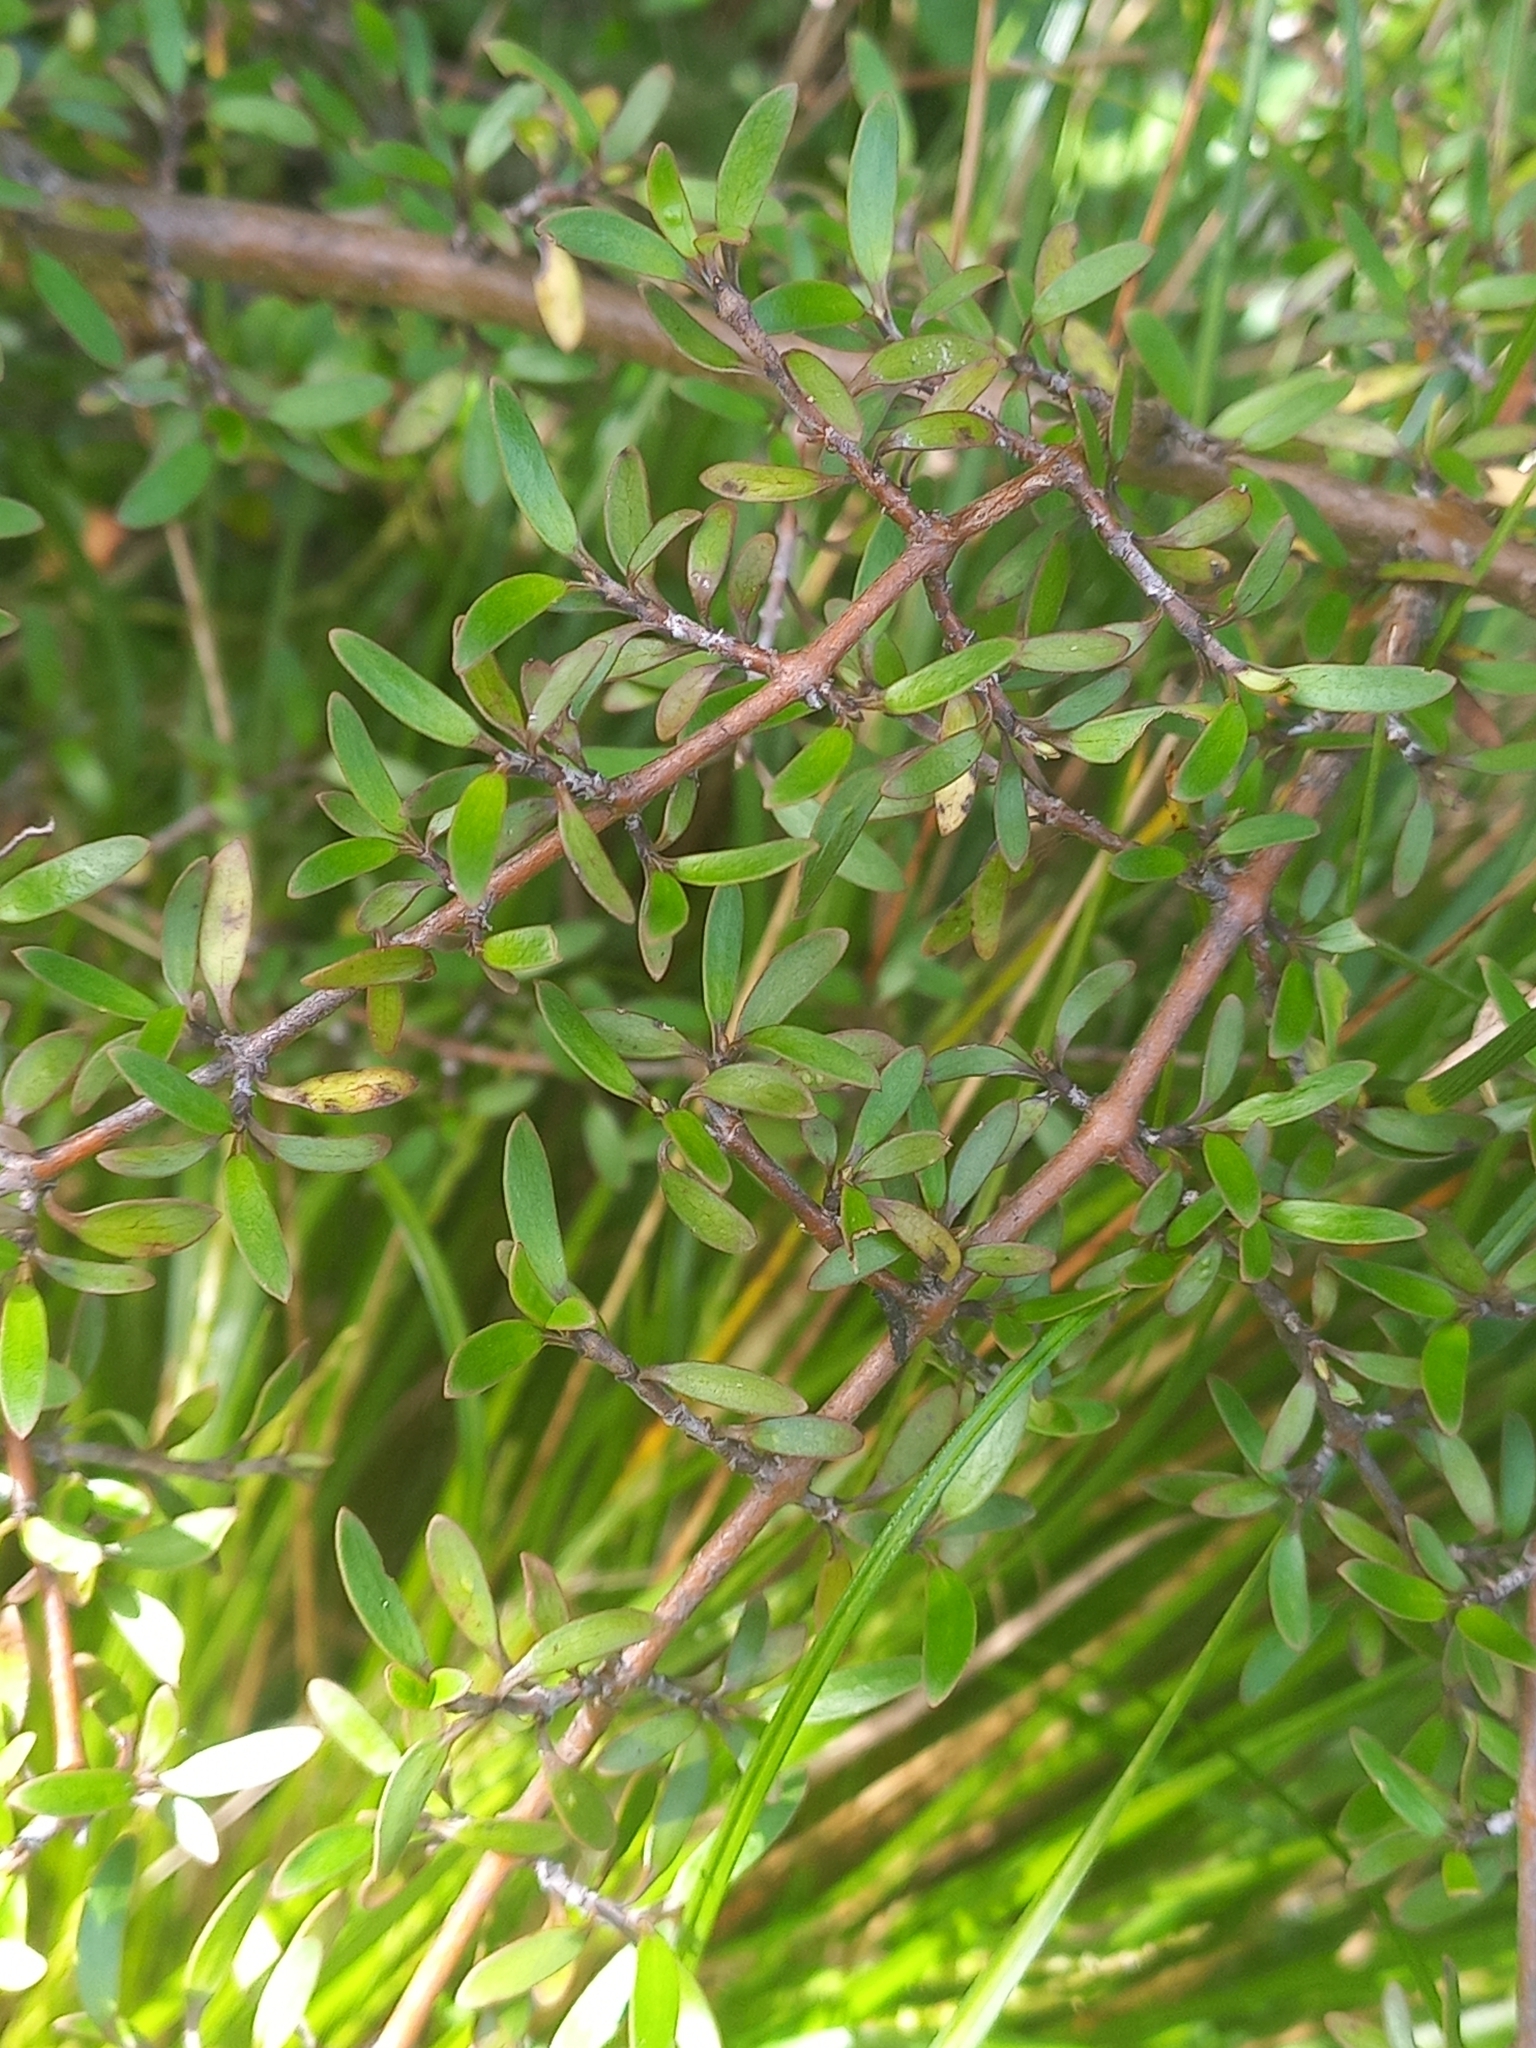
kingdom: Plantae
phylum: Tracheophyta
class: Magnoliopsida
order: Gentianales
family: Rubiaceae
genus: Coprosma
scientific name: Coprosma propinqua
